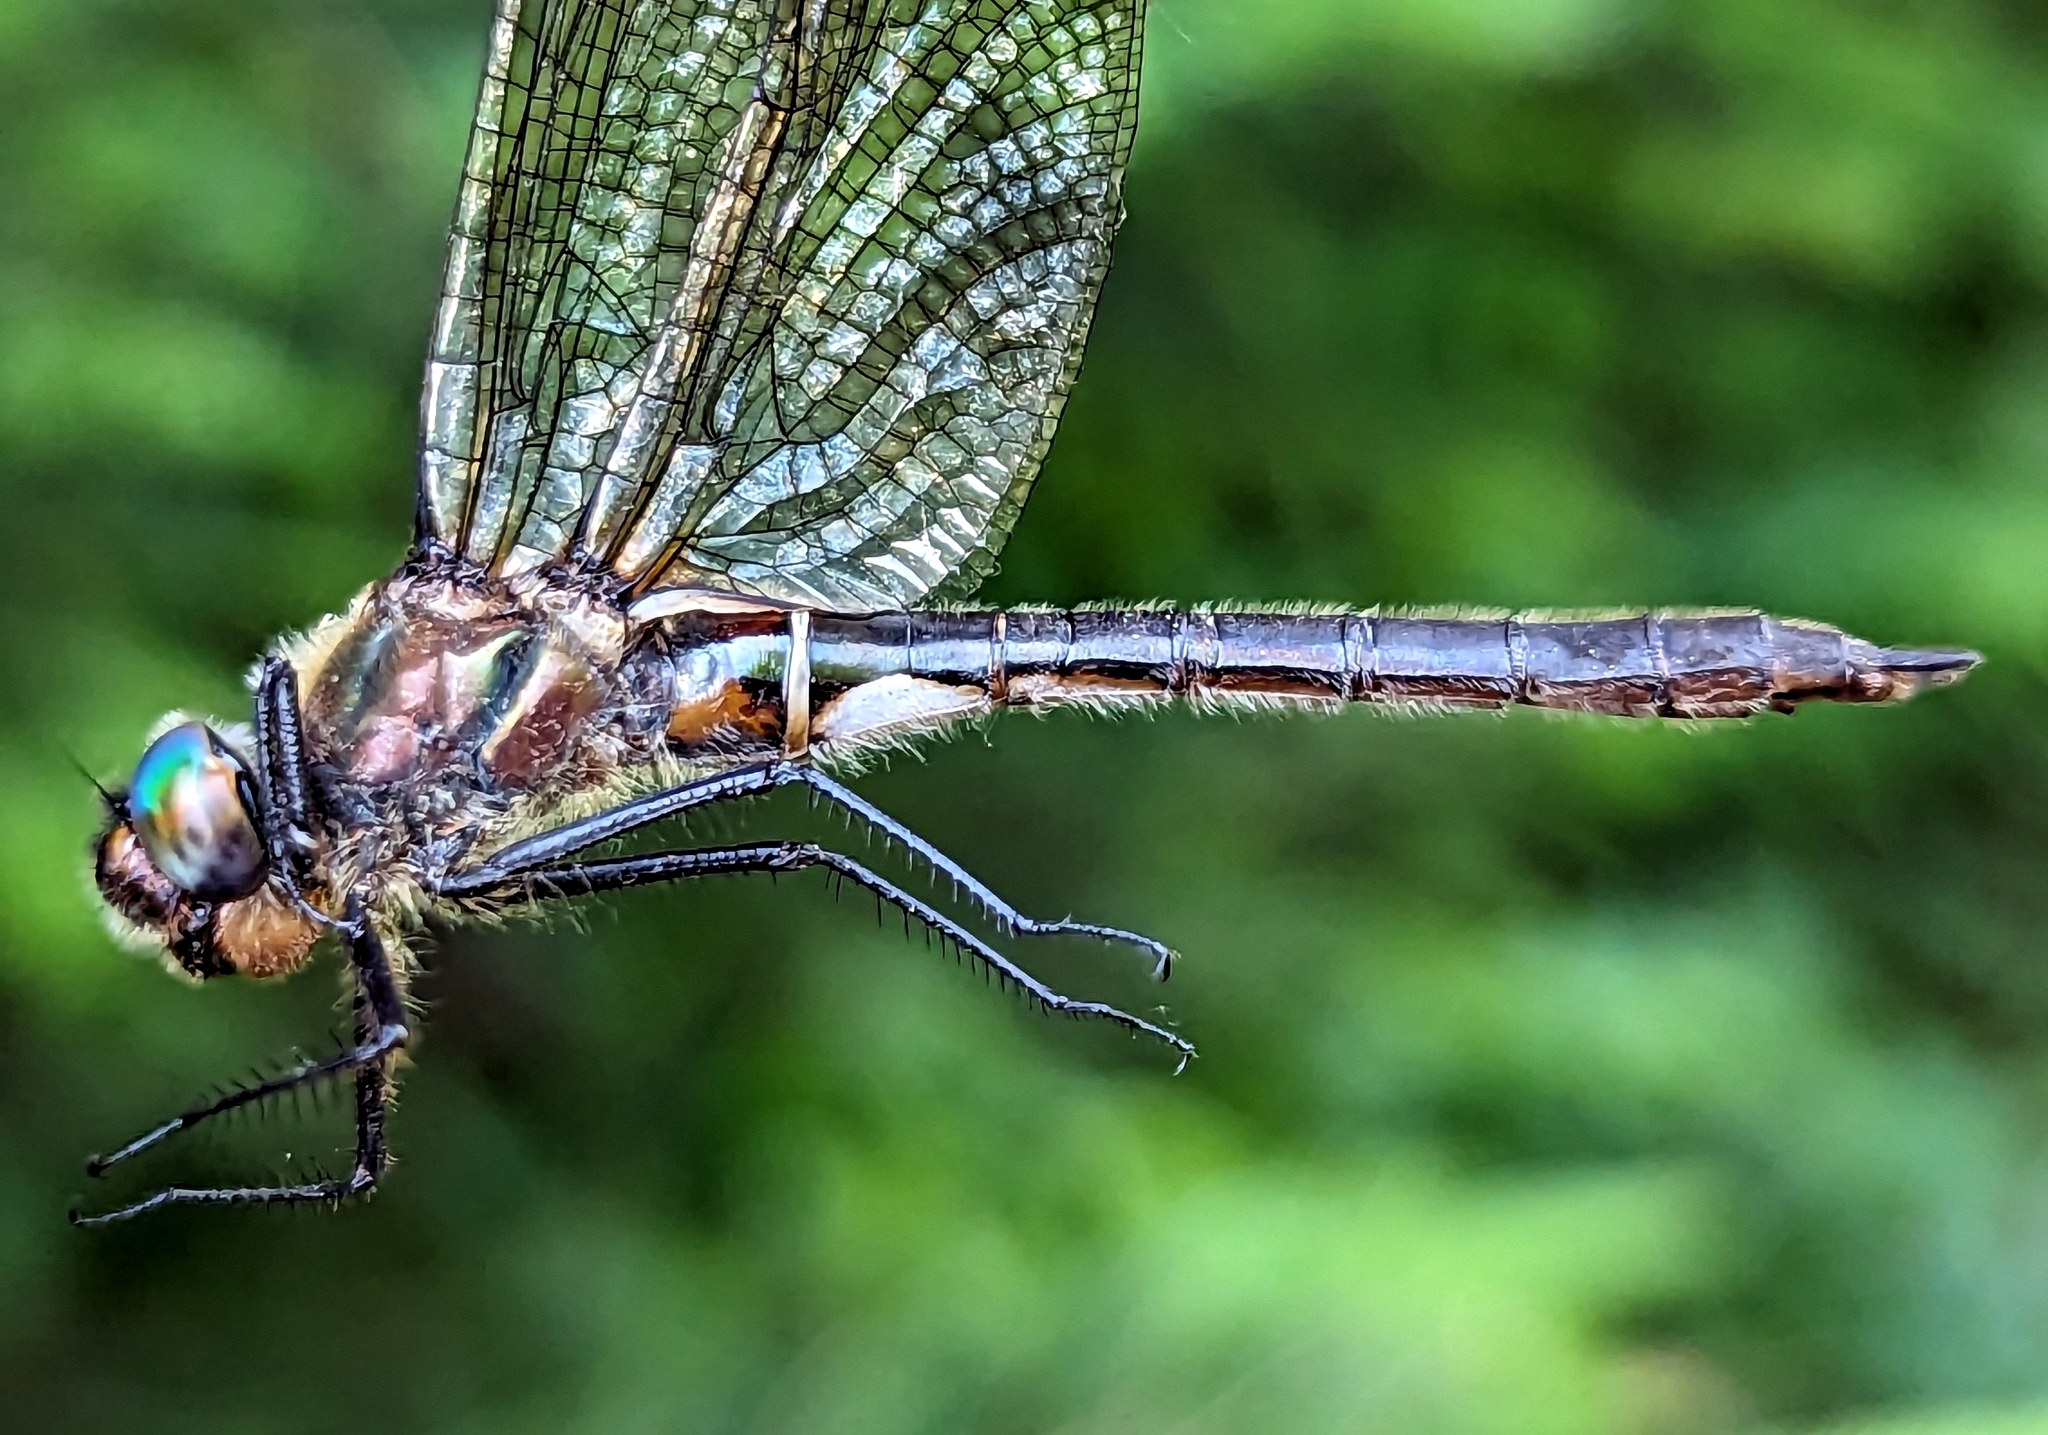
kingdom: Animalia
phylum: Arthropoda
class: Insecta
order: Odonata
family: Corduliidae
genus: Cordulia
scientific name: Cordulia shurtleffii
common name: American emerald
